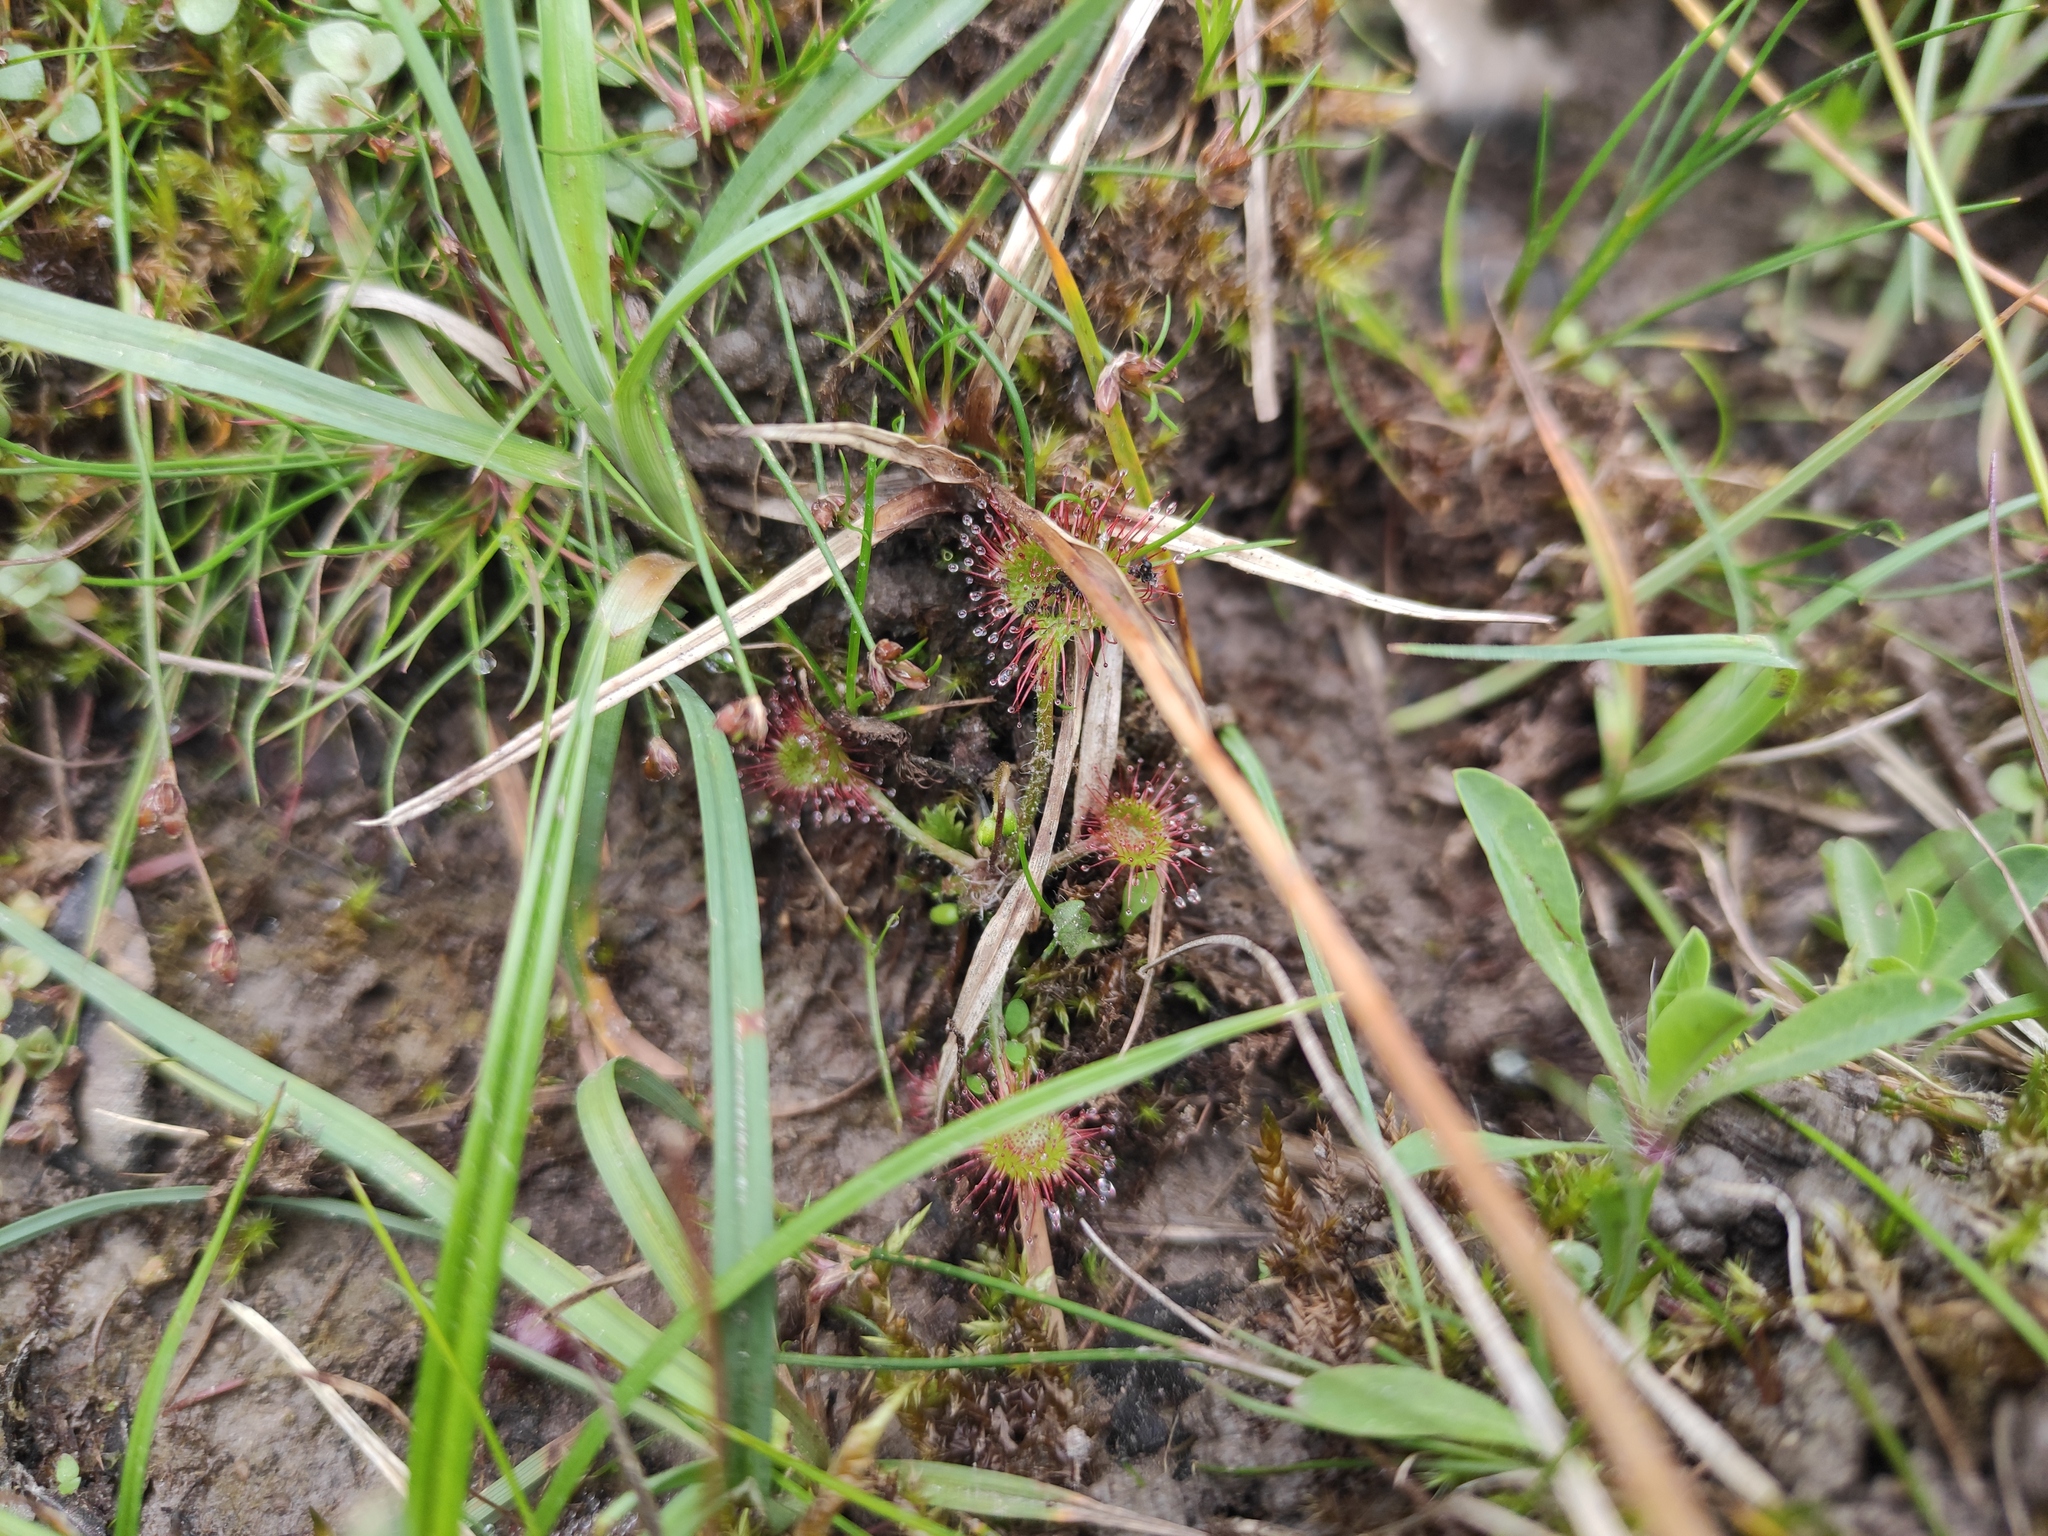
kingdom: Plantae
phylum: Tracheophyta
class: Magnoliopsida
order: Caryophyllales
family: Droseraceae
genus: Drosera
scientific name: Drosera rotundifolia
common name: Round-leaved sundew
